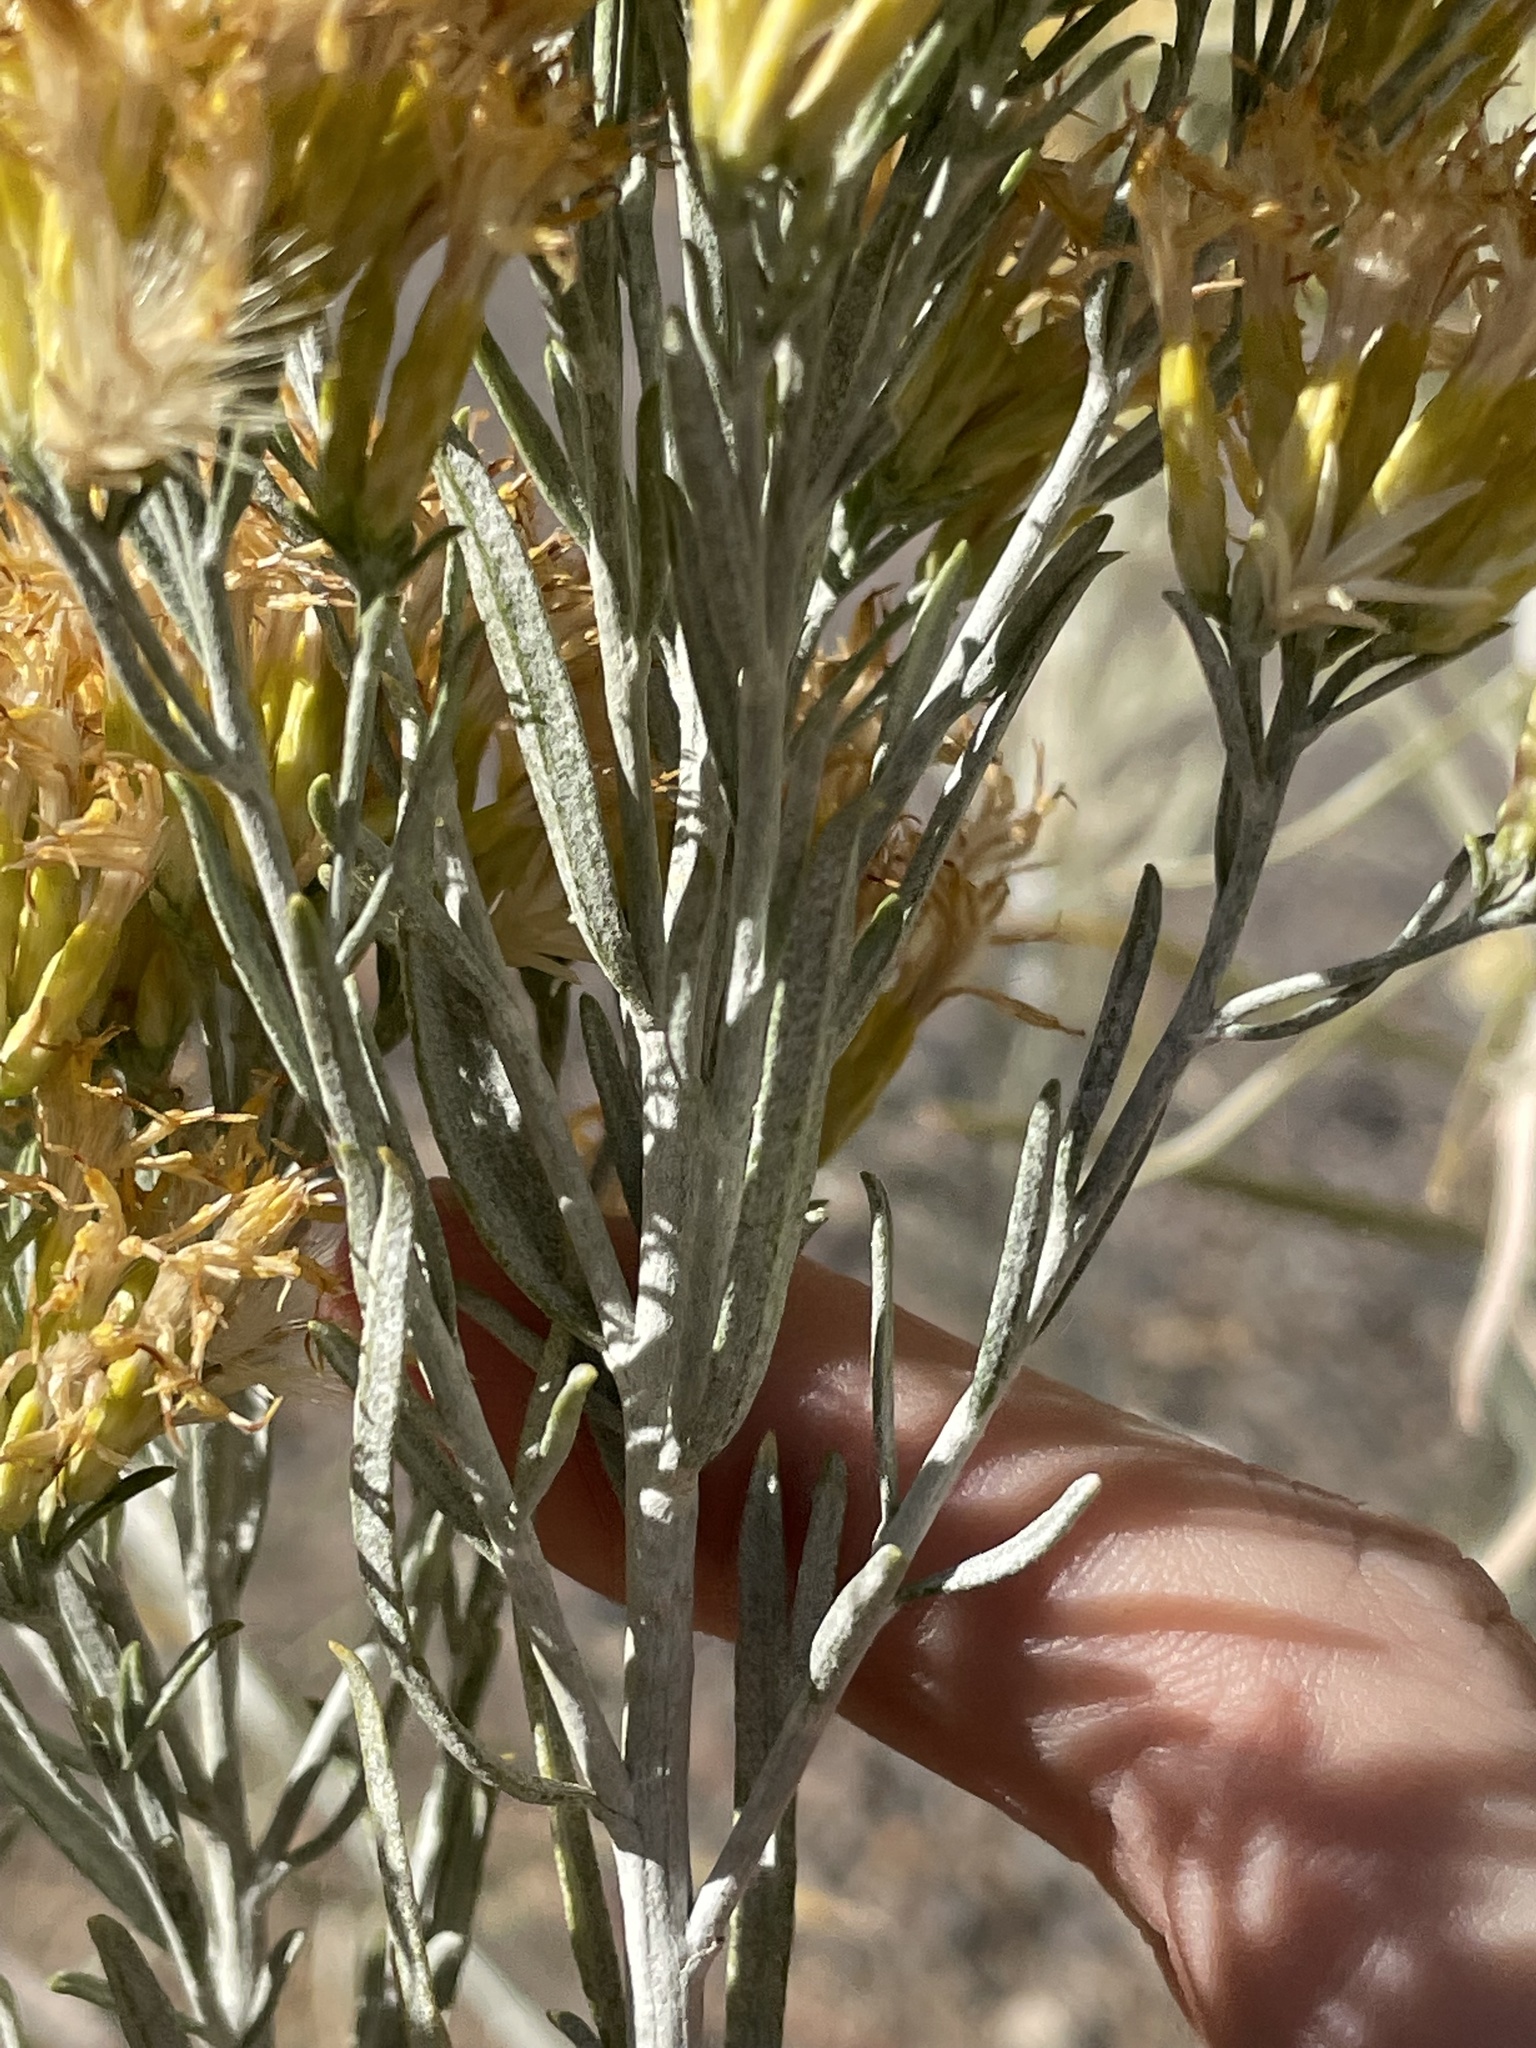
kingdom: Plantae
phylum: Tracheophyta
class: Magnoliopsida
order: Asterales
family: Asteraceae
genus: Ericameria
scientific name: Ericameria nauseosa
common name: Rubber rabbitbrush
